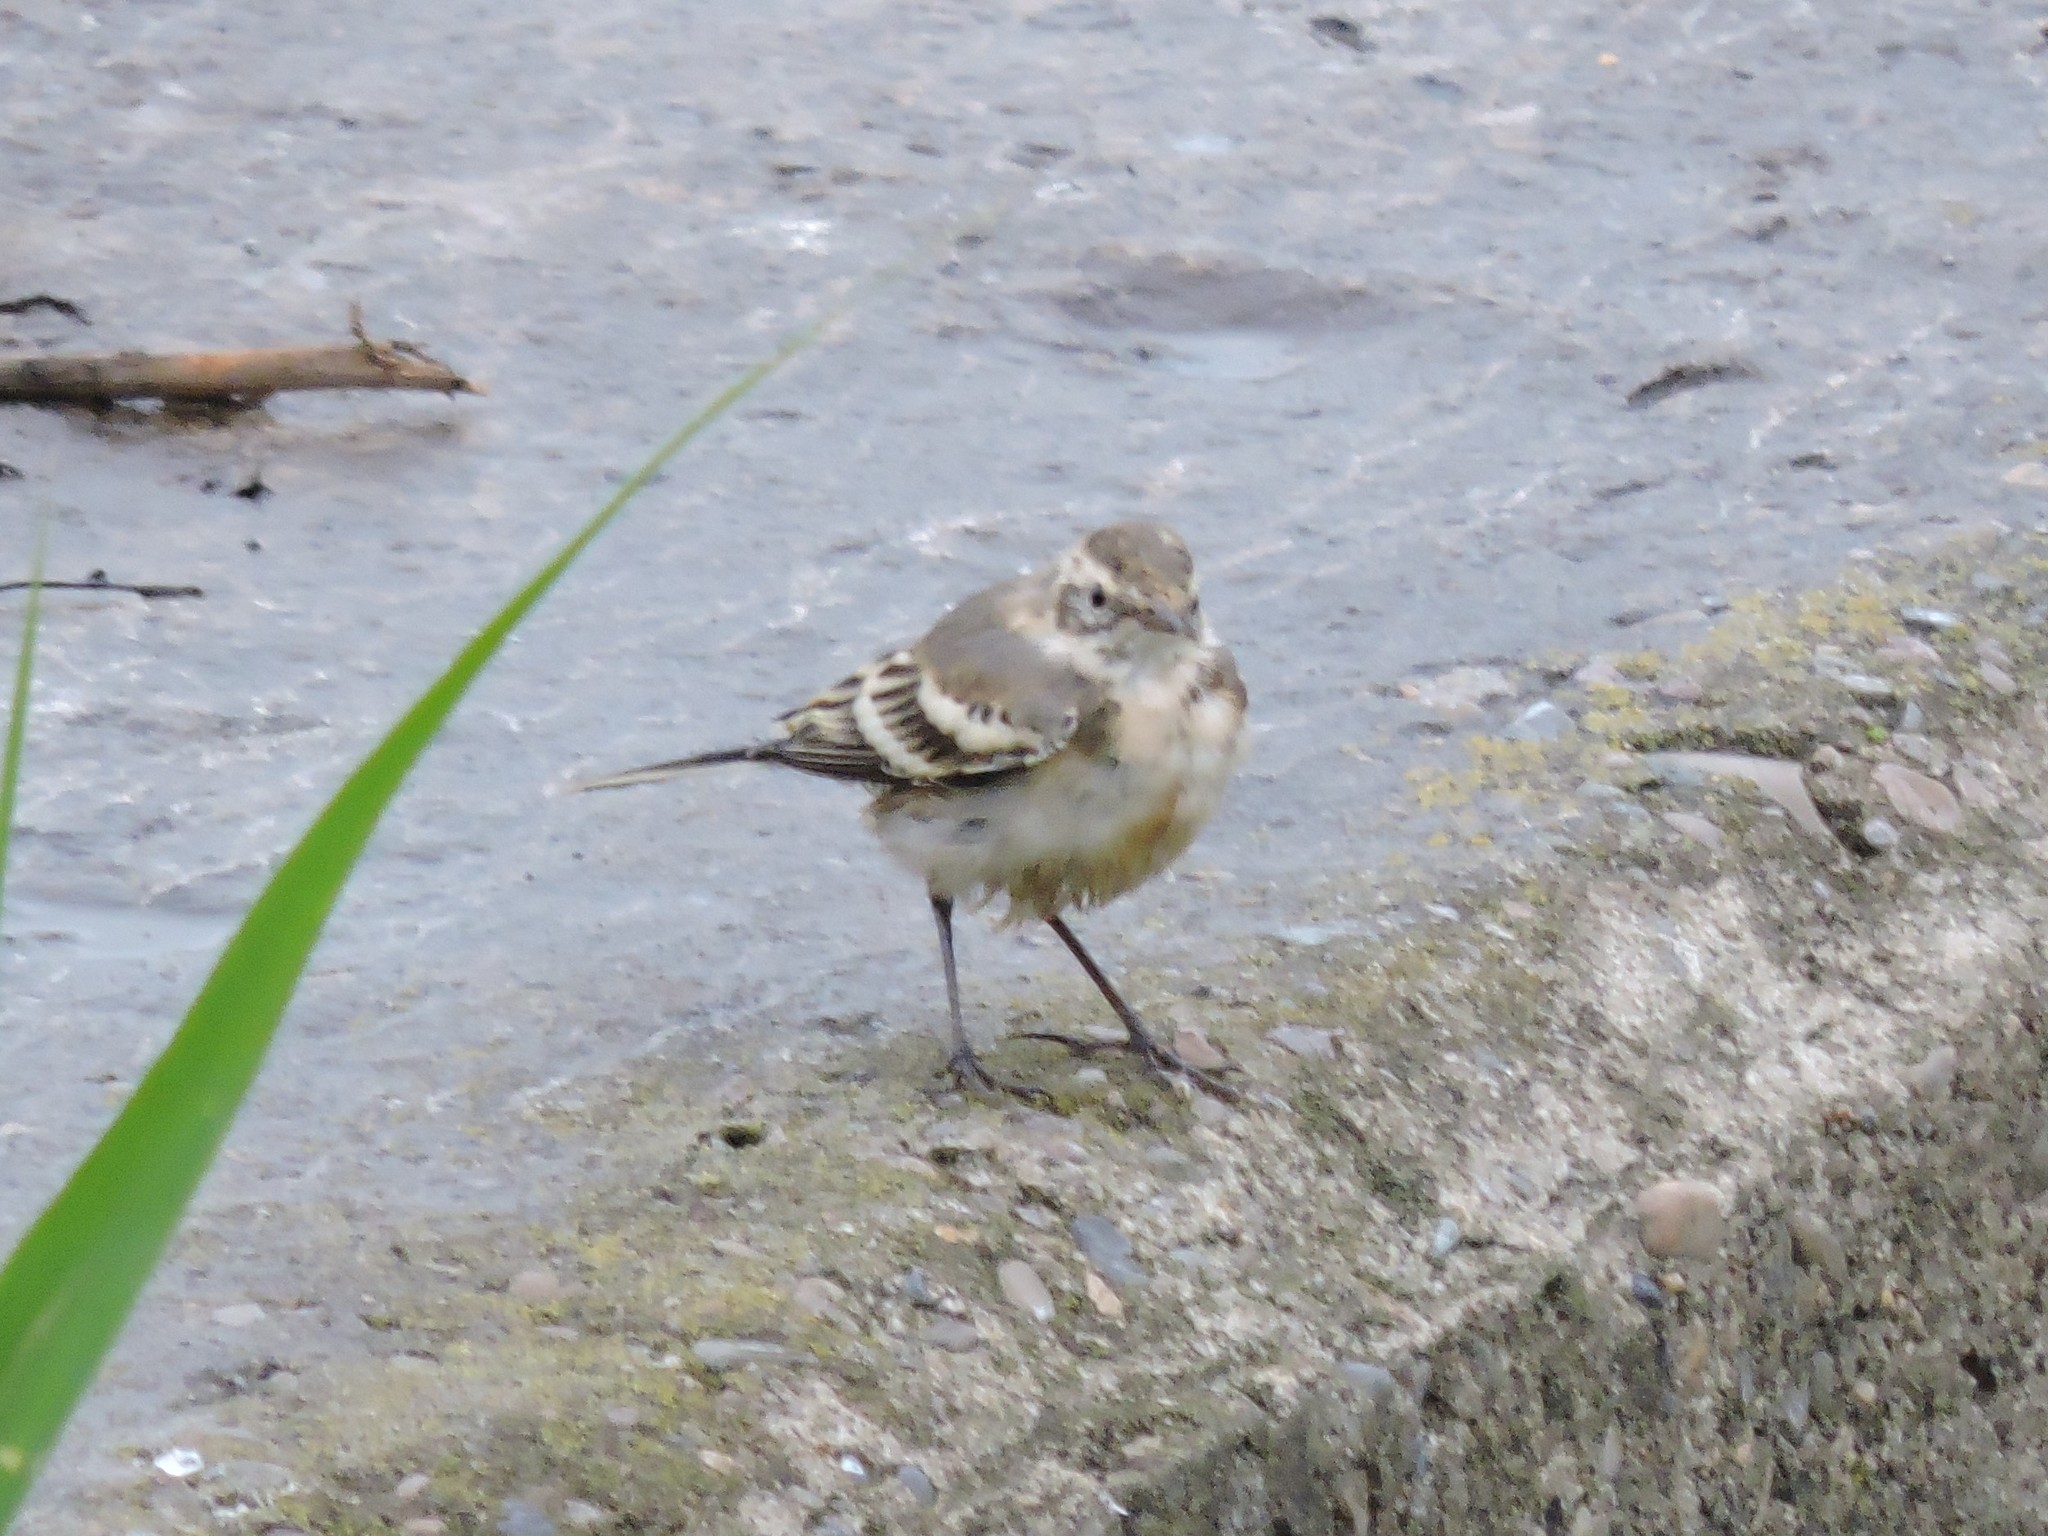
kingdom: Animalia
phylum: Chordata
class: Aves
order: Passeriformes
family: Motacillidae
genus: Motacilla
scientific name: Motacilla citreola
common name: Citrine wagtail
